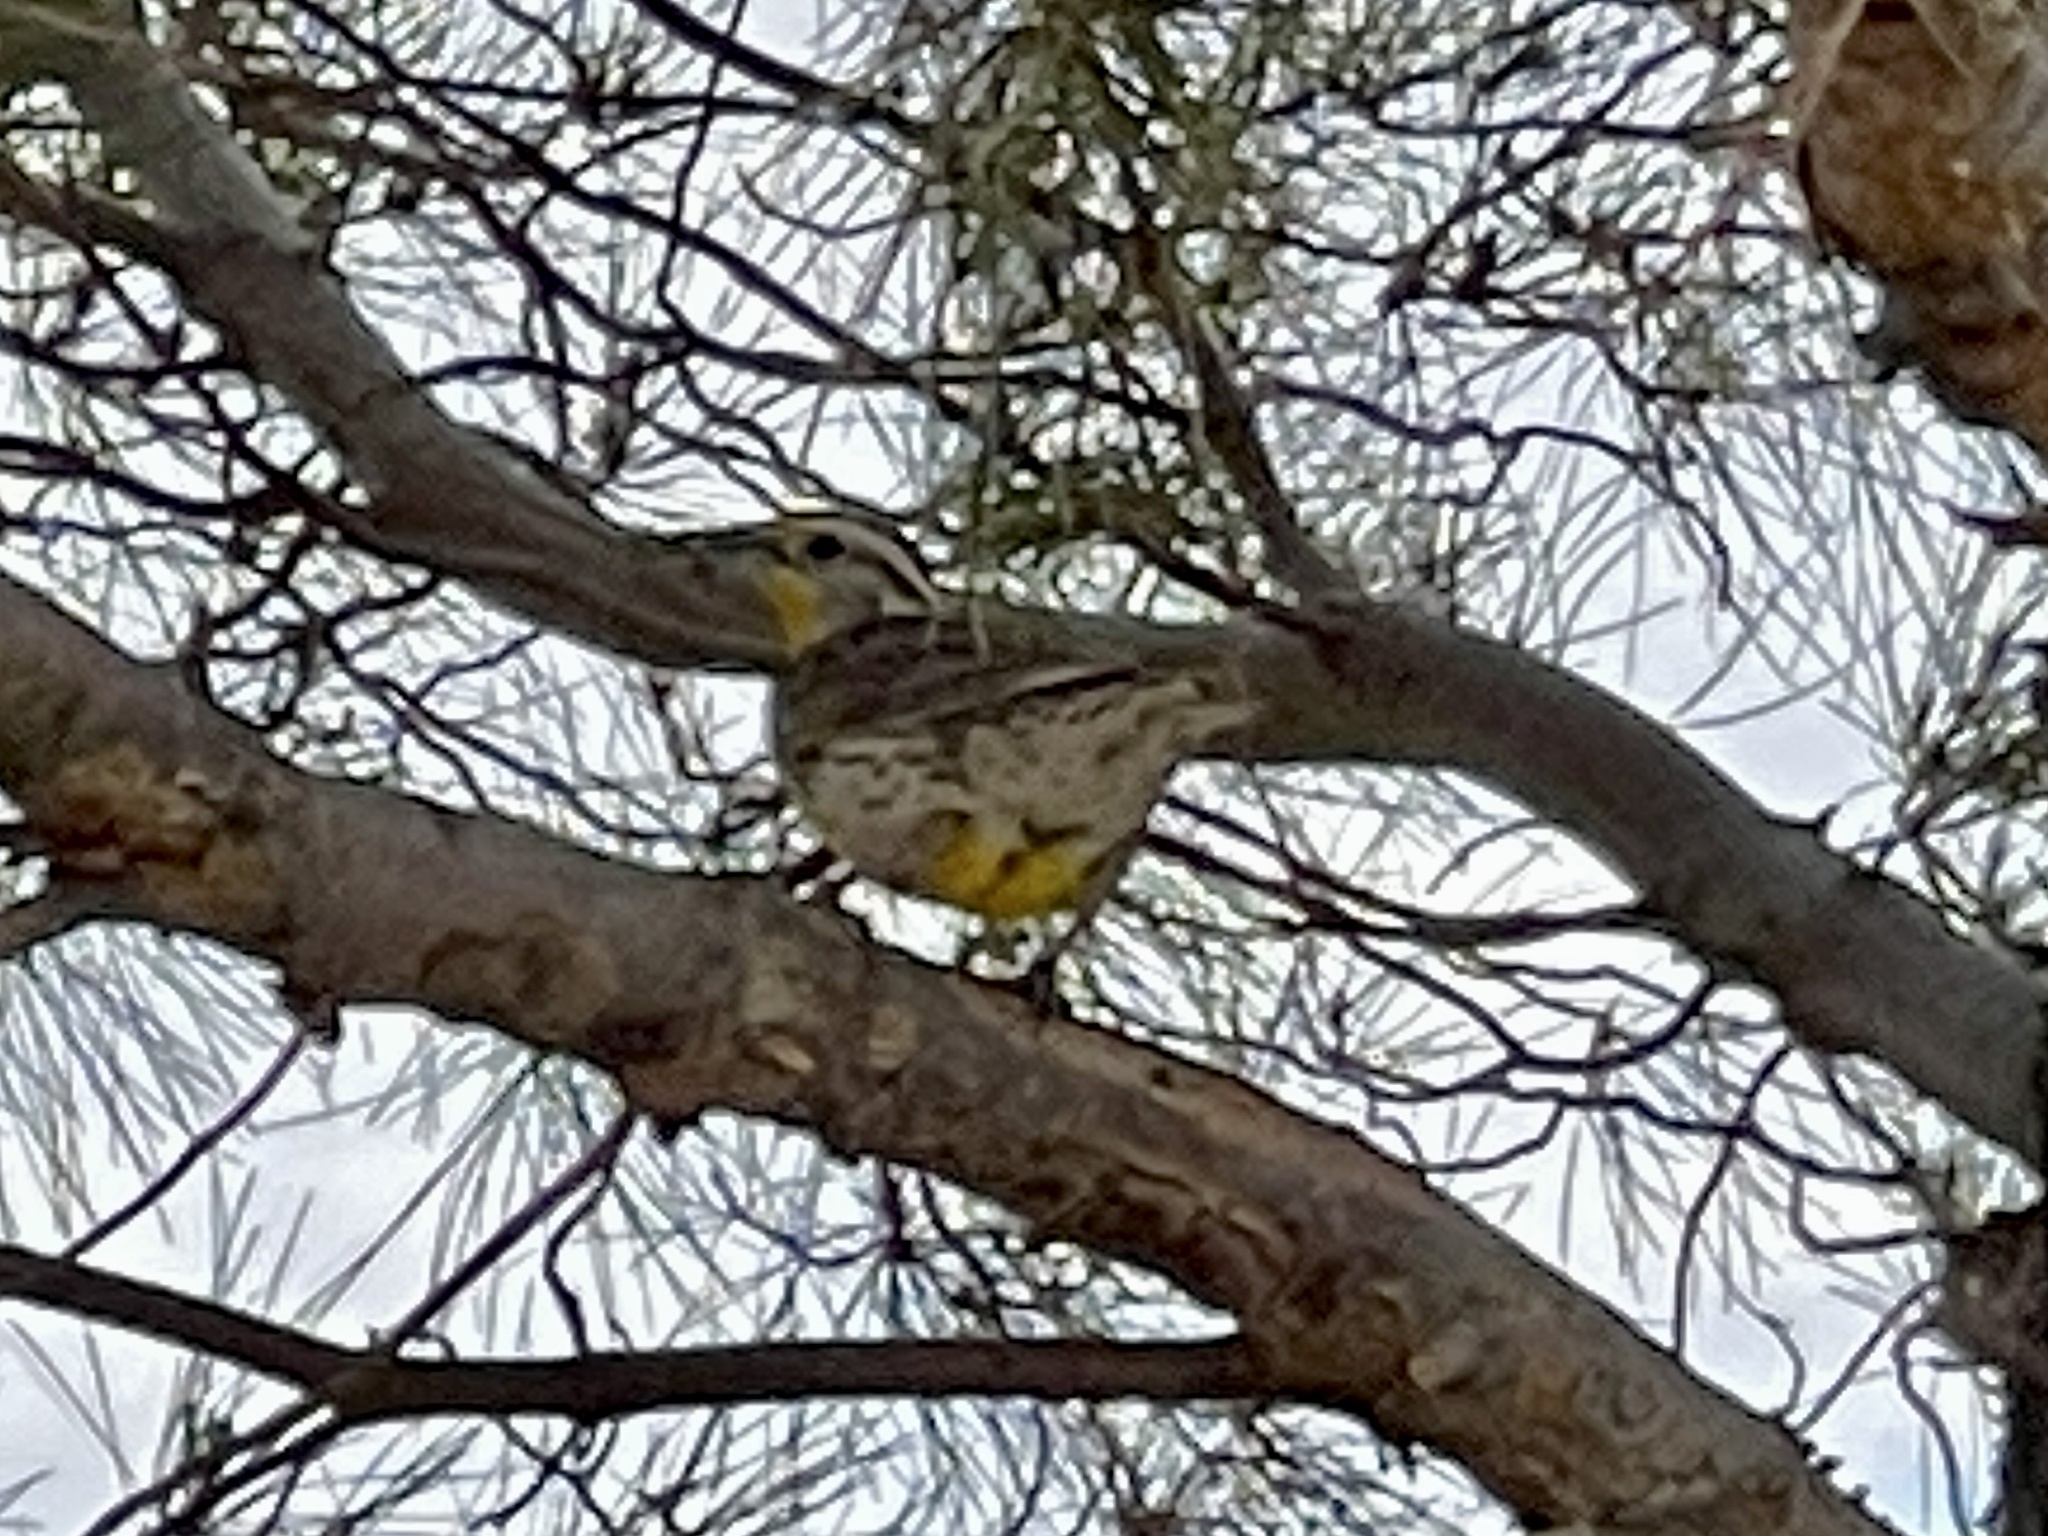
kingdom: Animalia
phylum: Chordata
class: Aves
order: Passeriformes
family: Icteridae
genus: Sturnella
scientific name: Sturnella neglecta
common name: Western meadowlark
